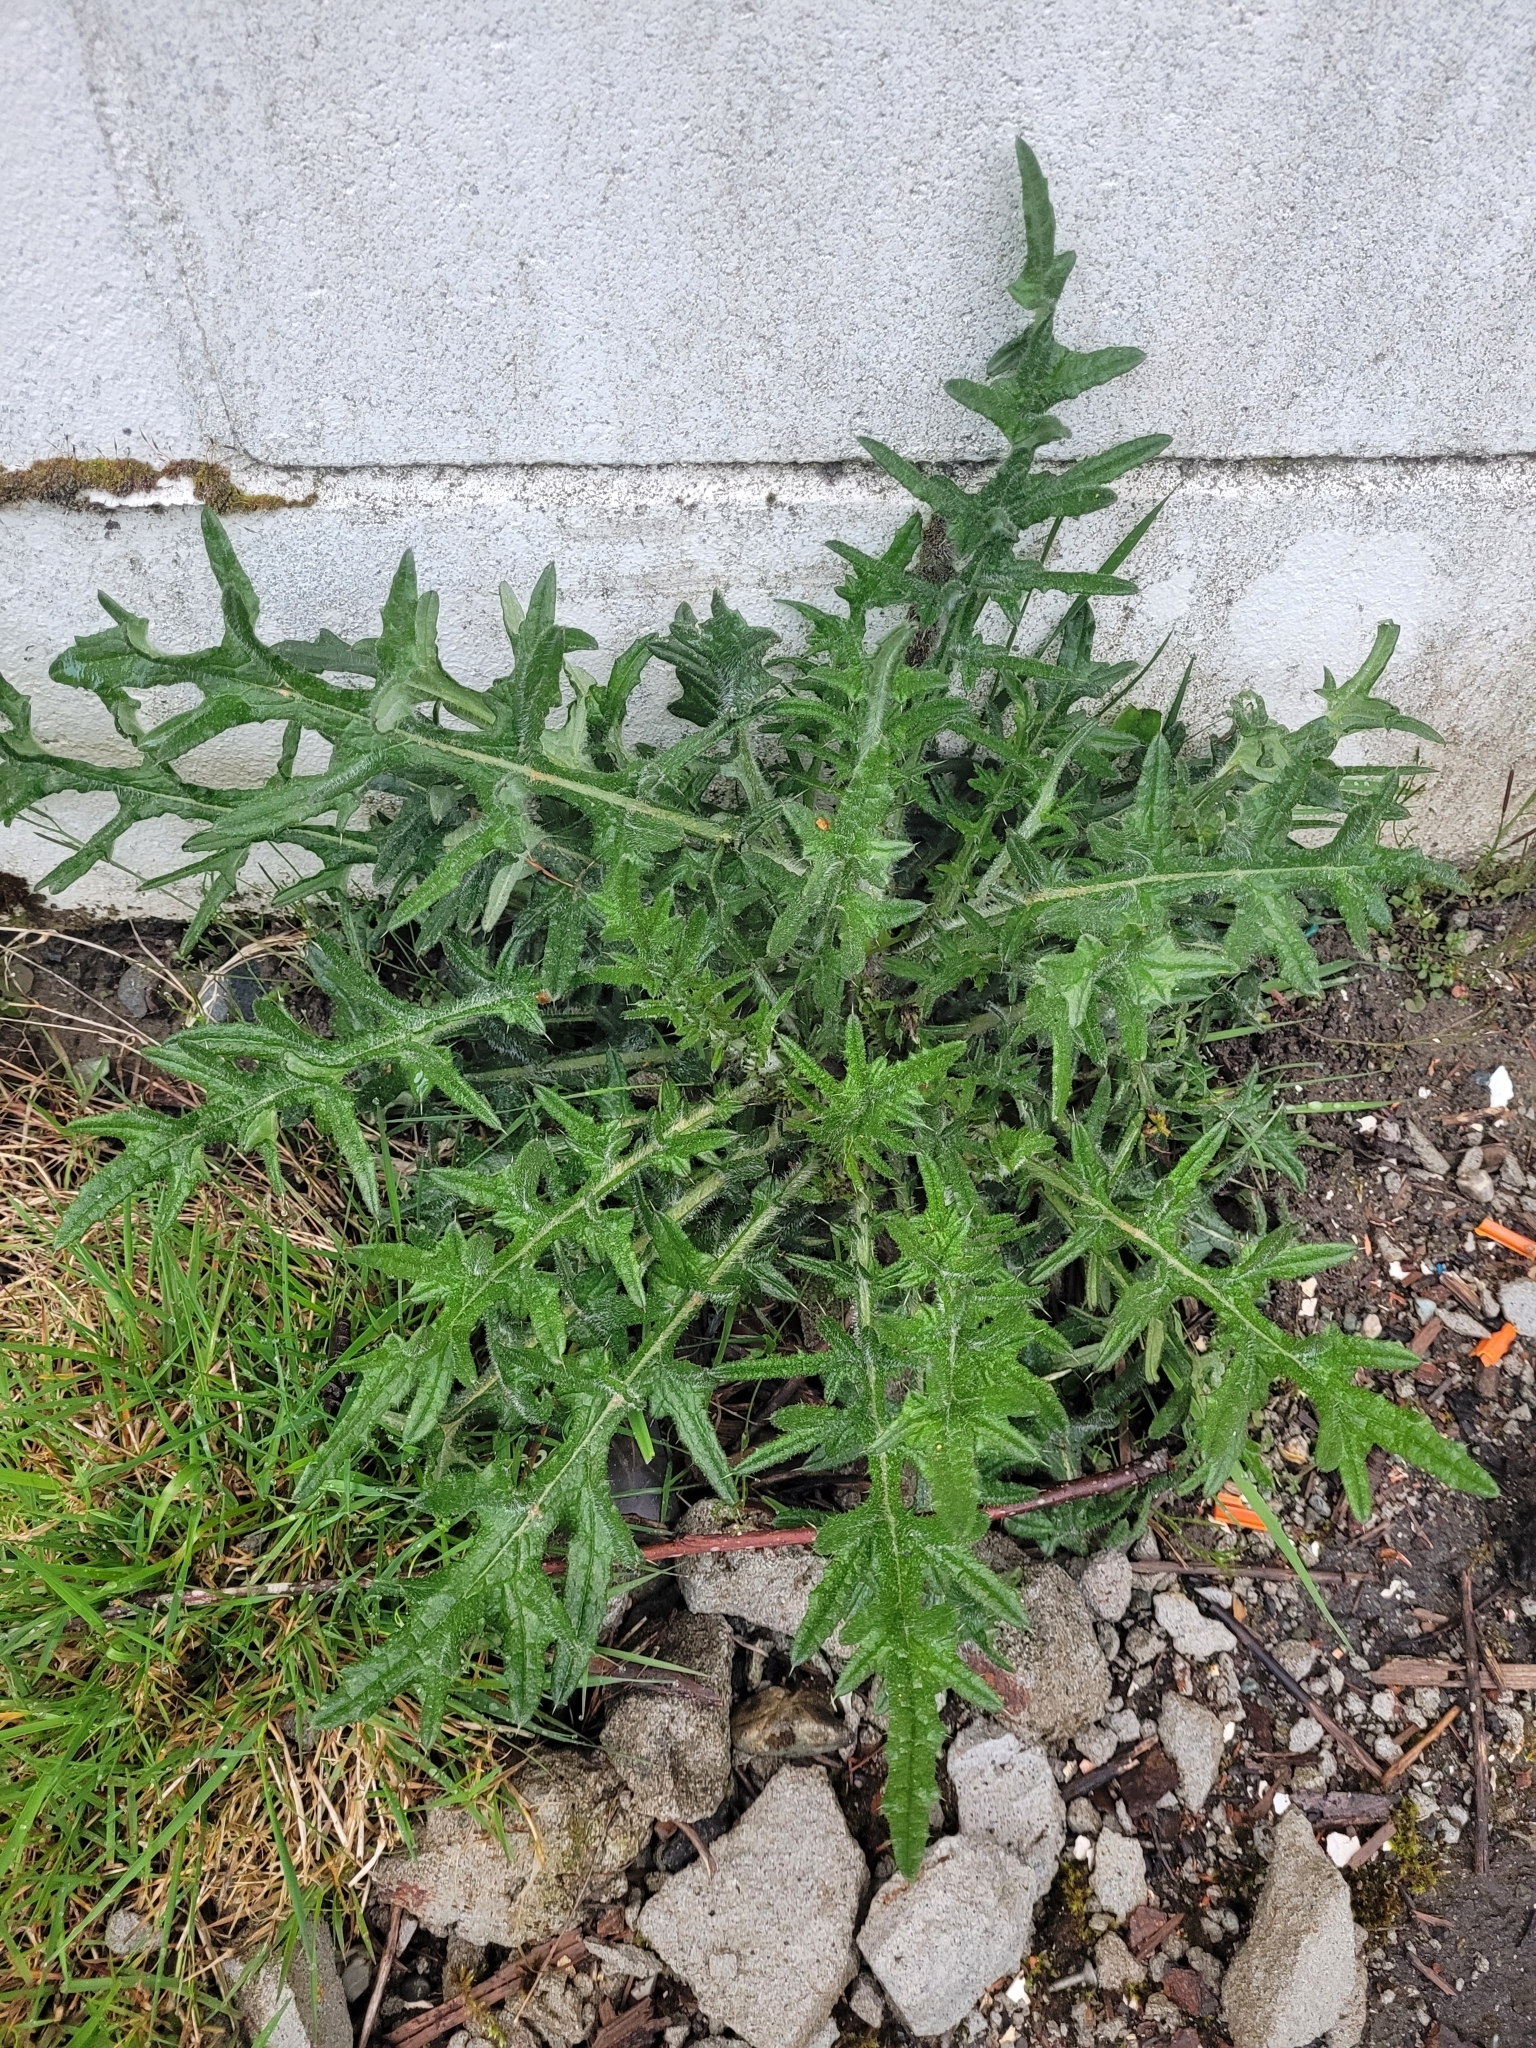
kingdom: Plantae
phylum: Tracheophyta
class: Magnoliopsida
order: Asterales
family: Asteraceae
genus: Cirsium
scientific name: Cirsium vulgare
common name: Bull thistle
